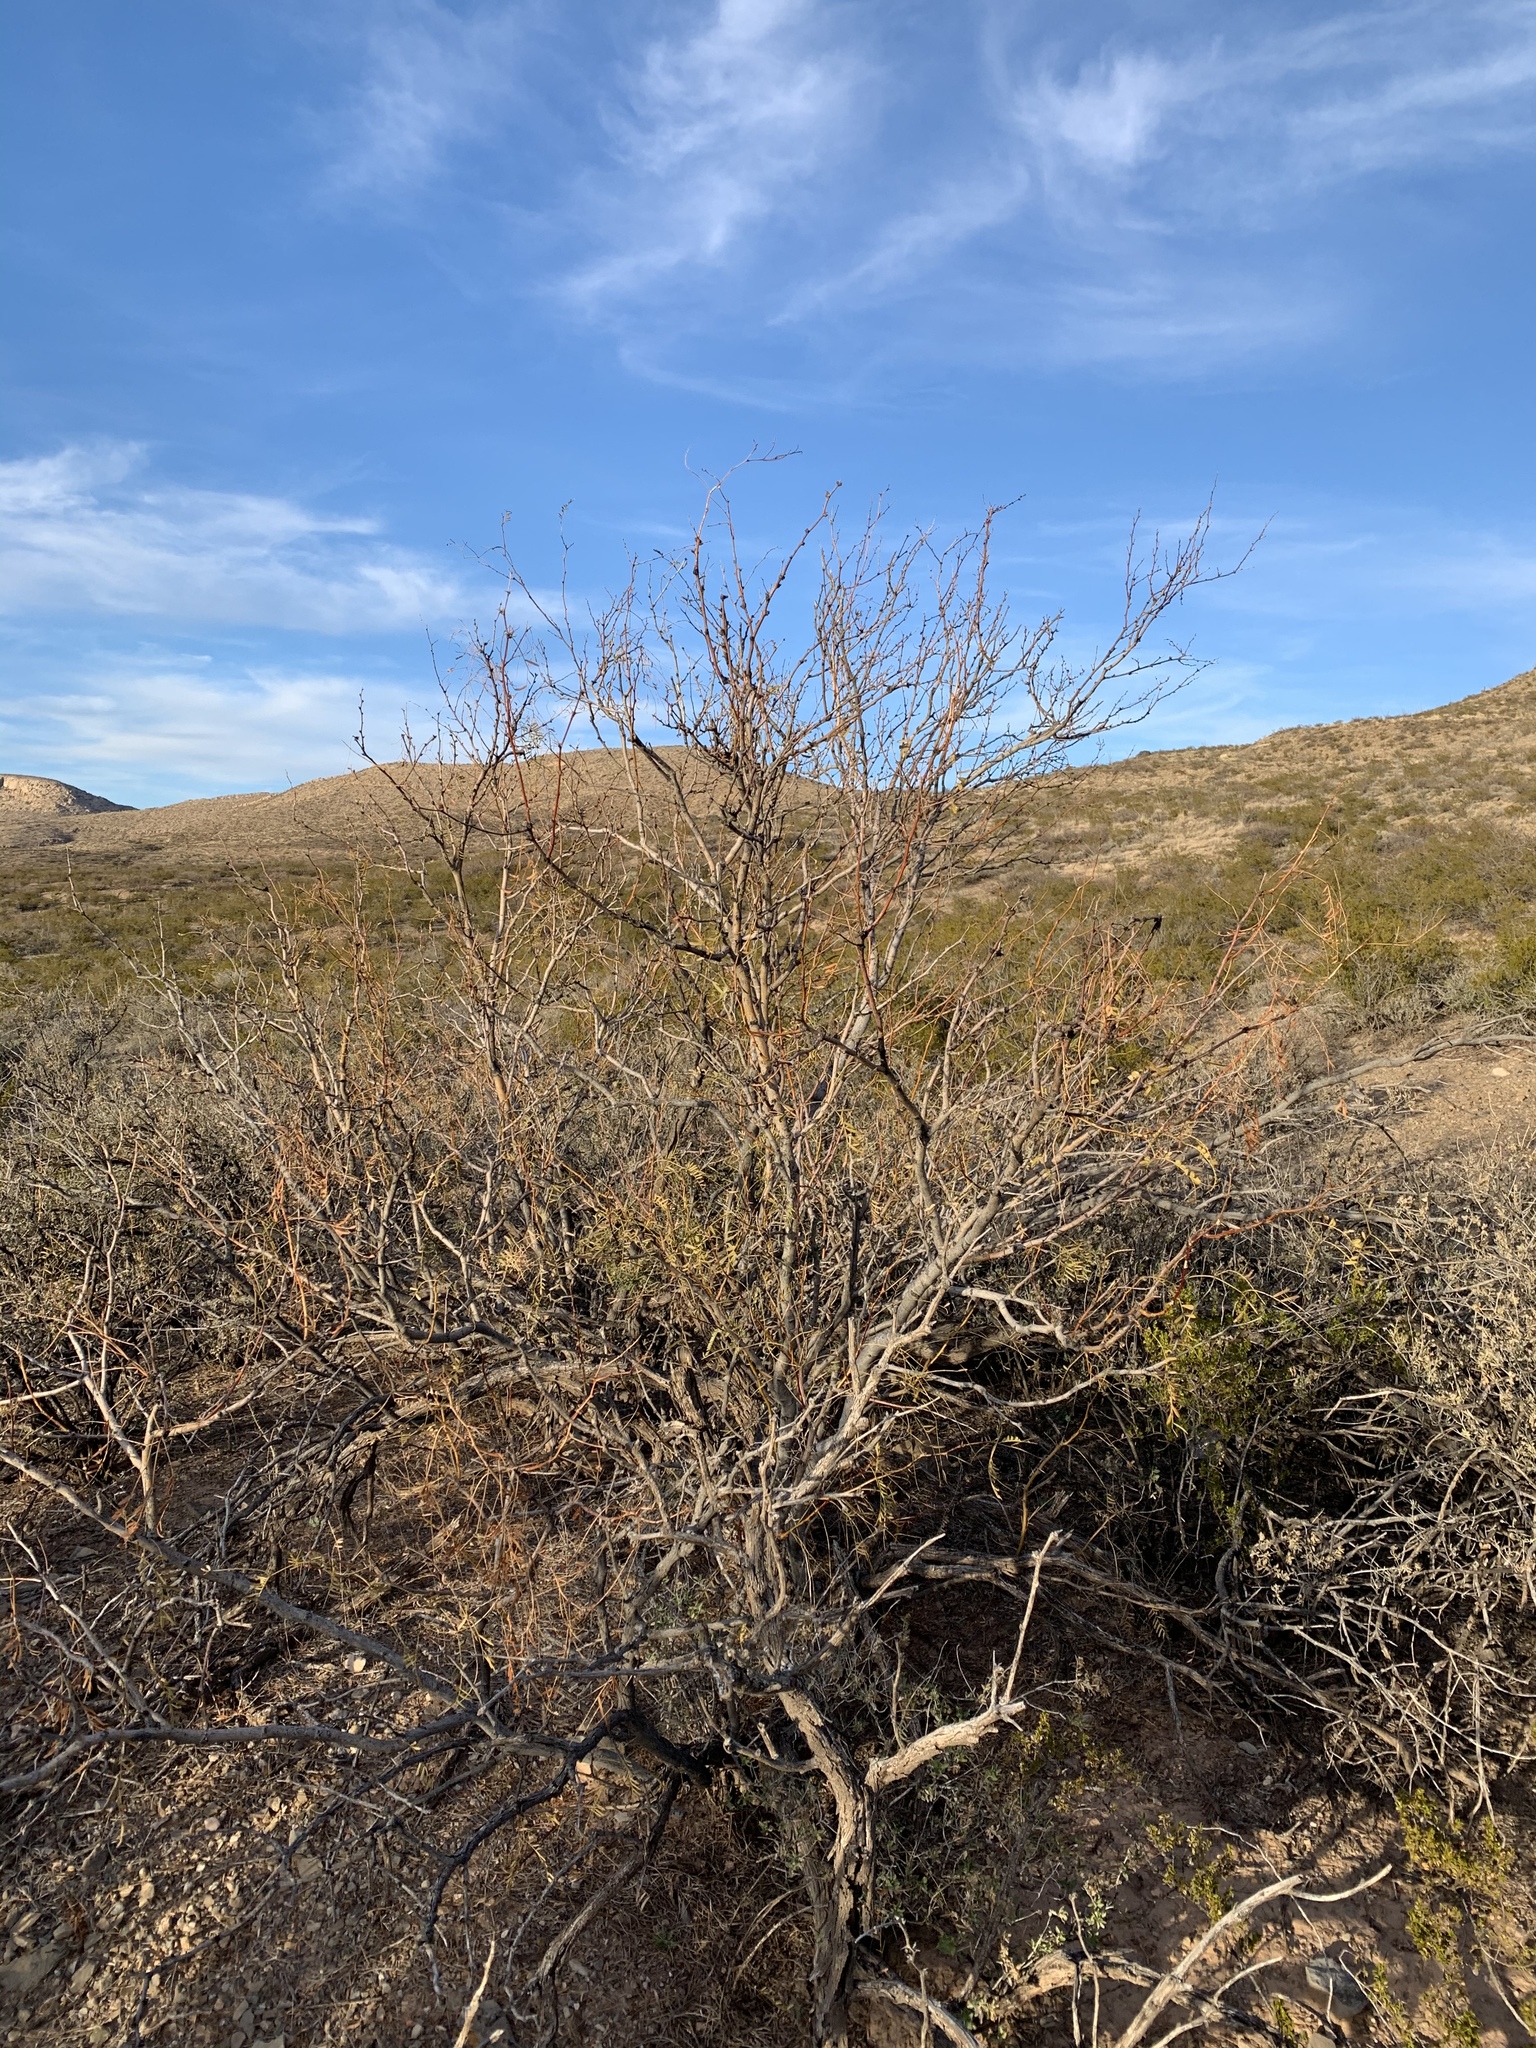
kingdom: Plantae
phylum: Tracheophyta
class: Magnoliopsida
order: Fabales
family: Fabaceae
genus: Prosopis
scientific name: Prosopis glandulosa
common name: Honey mesquite
